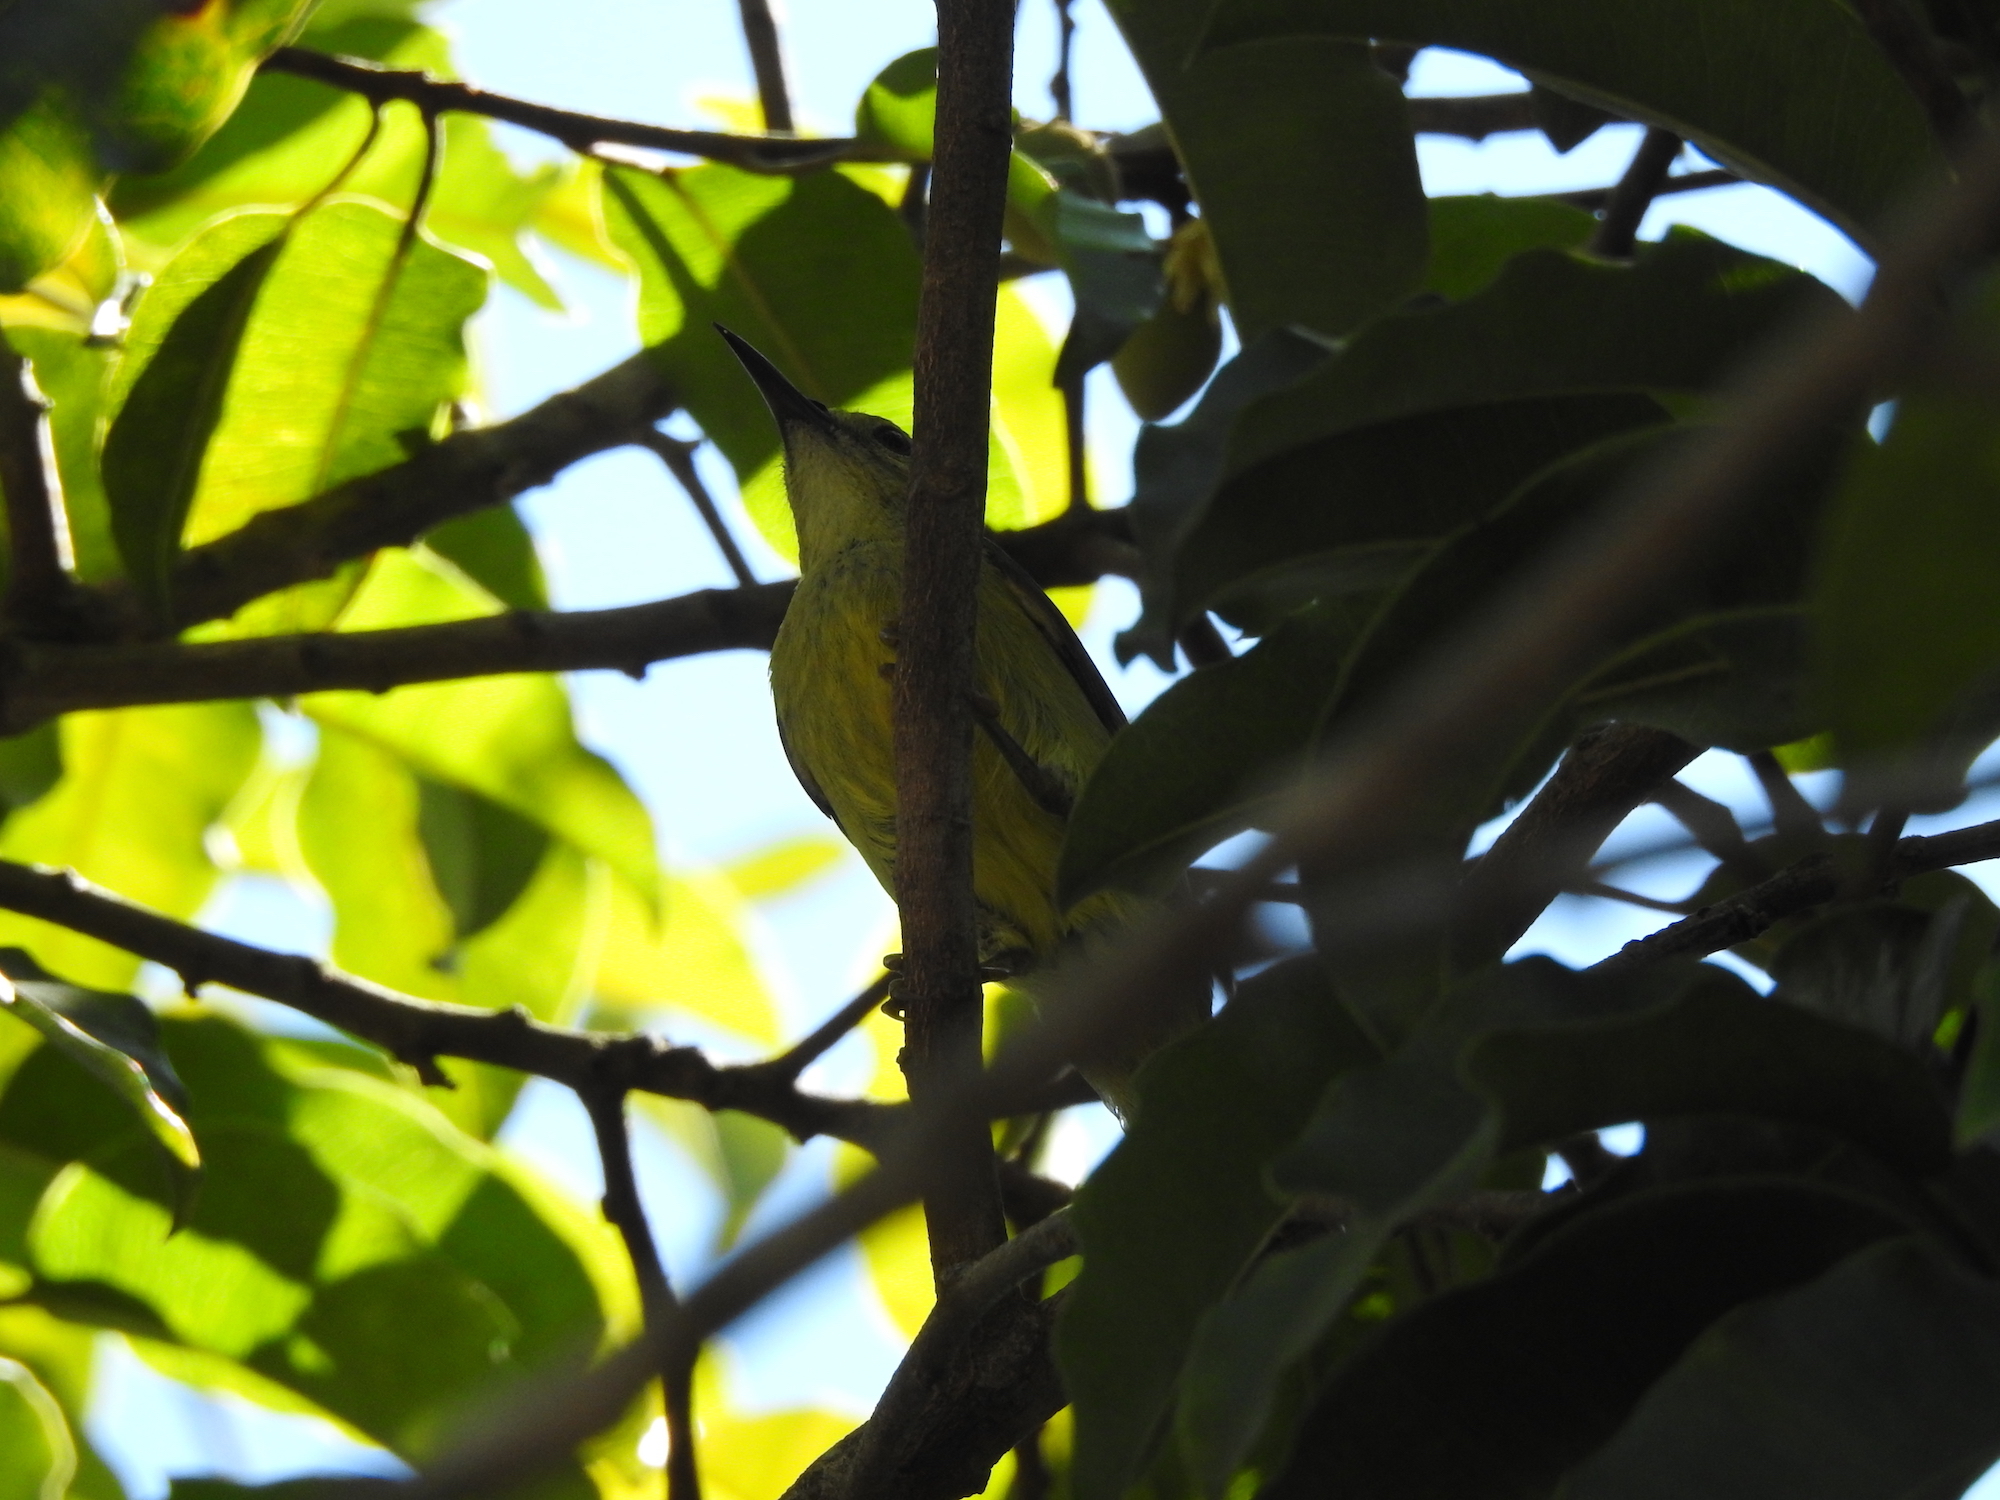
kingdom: Animalia
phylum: Chordata
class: Aves
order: Passeriformes
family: Nectariniidae
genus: Anthreptes
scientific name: Anthreptes malacensis
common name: Brown-throated sunbird
